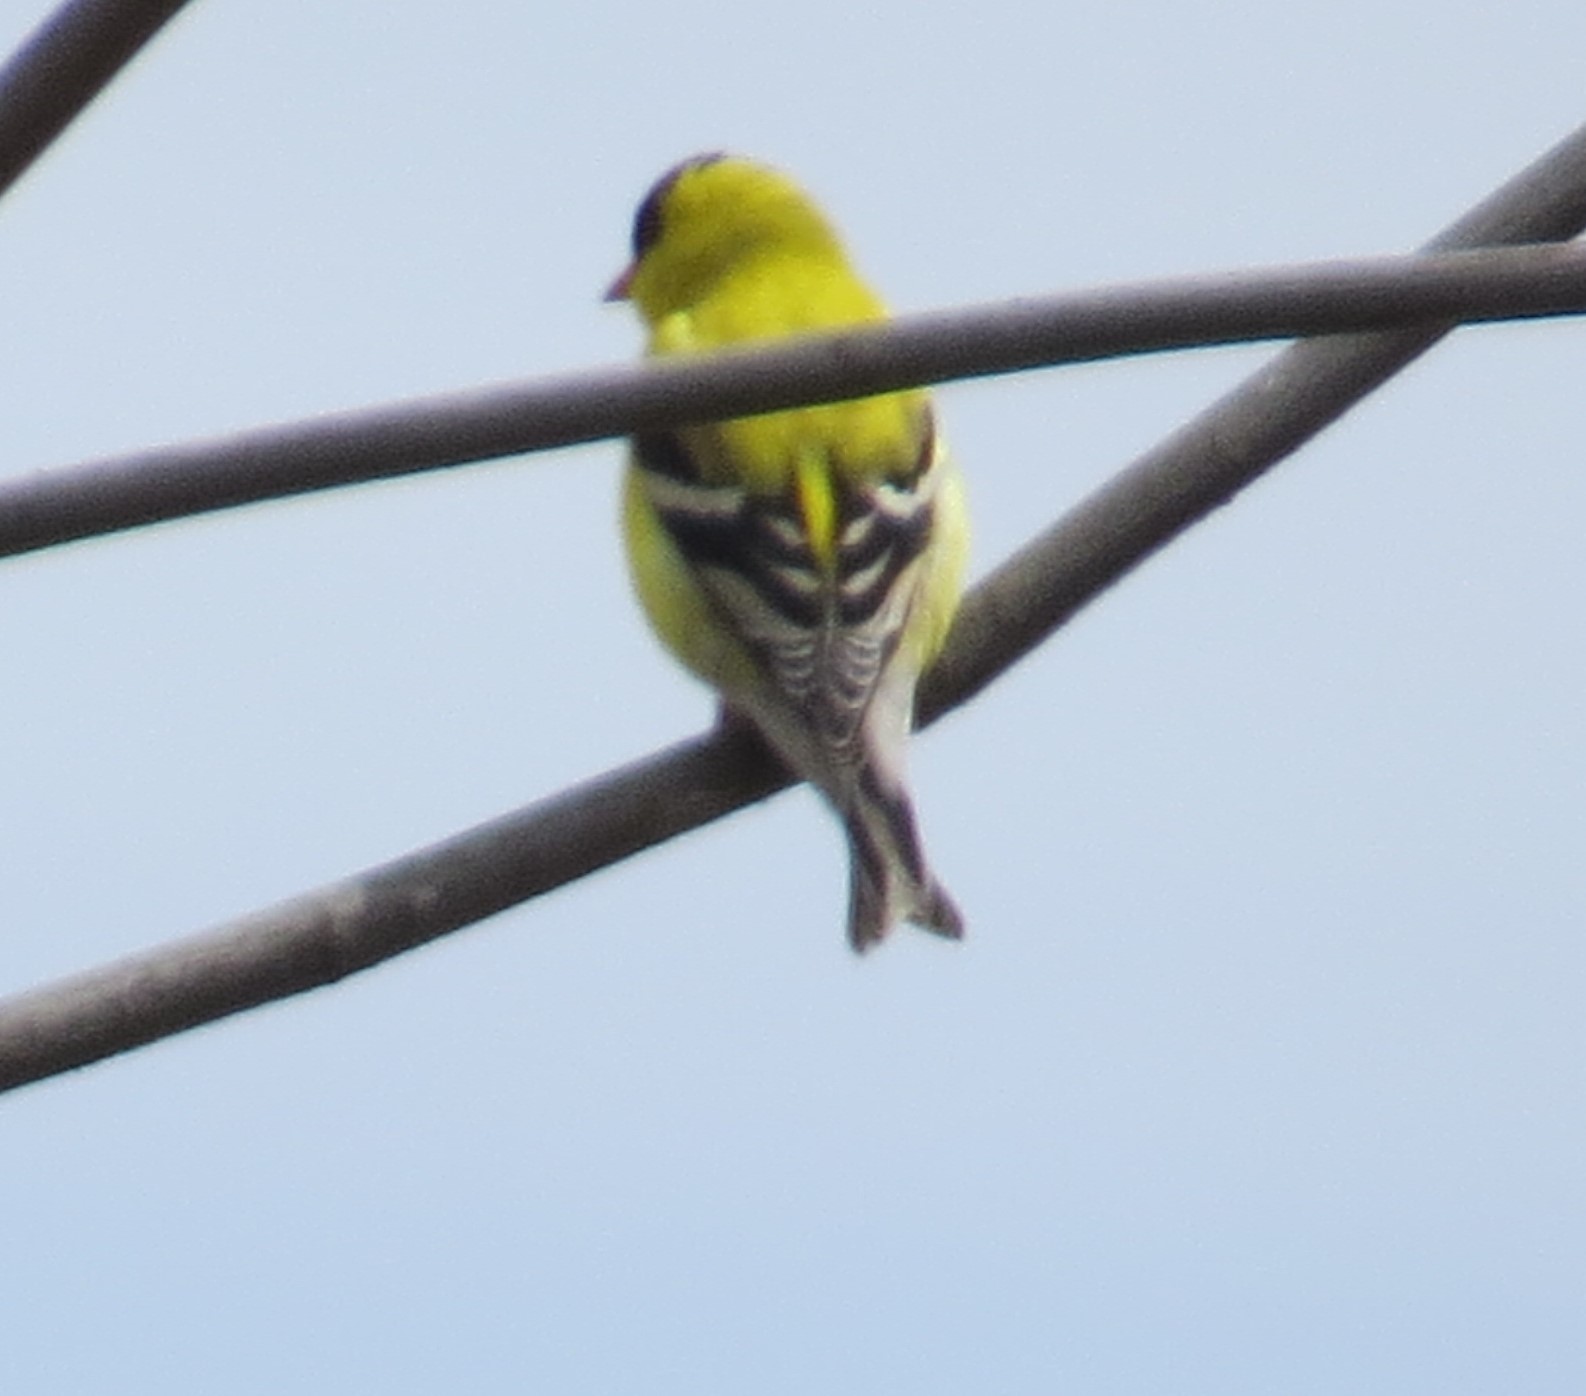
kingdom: Animalia
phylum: Chordata
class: Aves
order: Passeriformes
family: Fringillidae
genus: Spinus
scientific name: Spinus tristis
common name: American goldfinch
